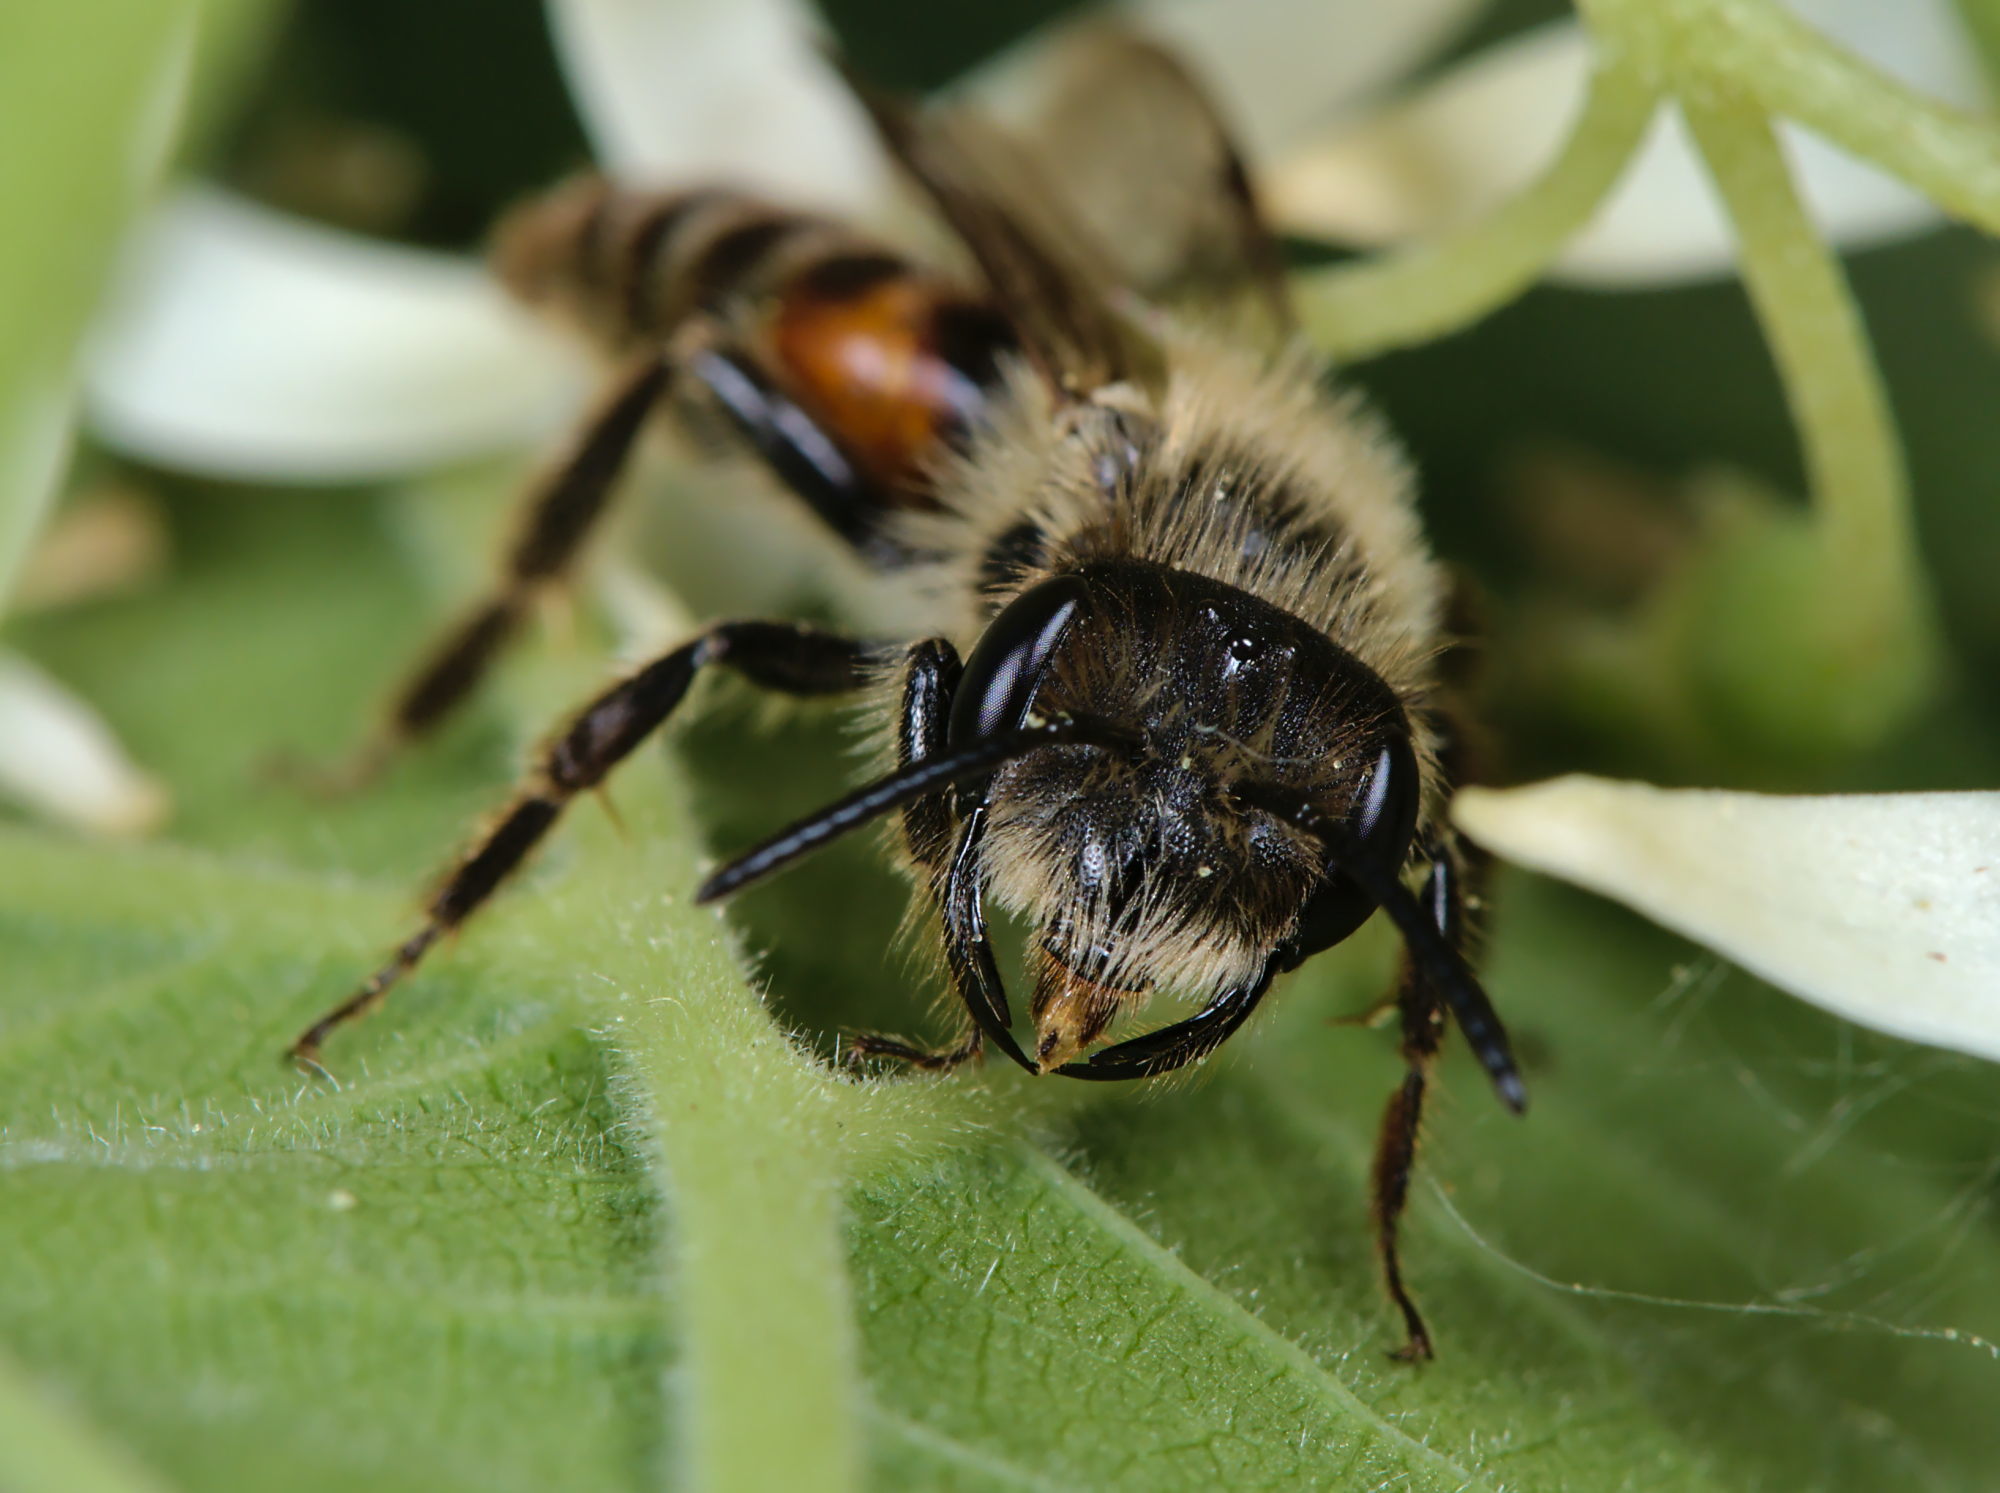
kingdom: Animalia
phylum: Arthropoda
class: Insecta
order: Hymenoptera
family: Andrenidae
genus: Andrena
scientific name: Andrena florea
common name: Bryony mining bee
